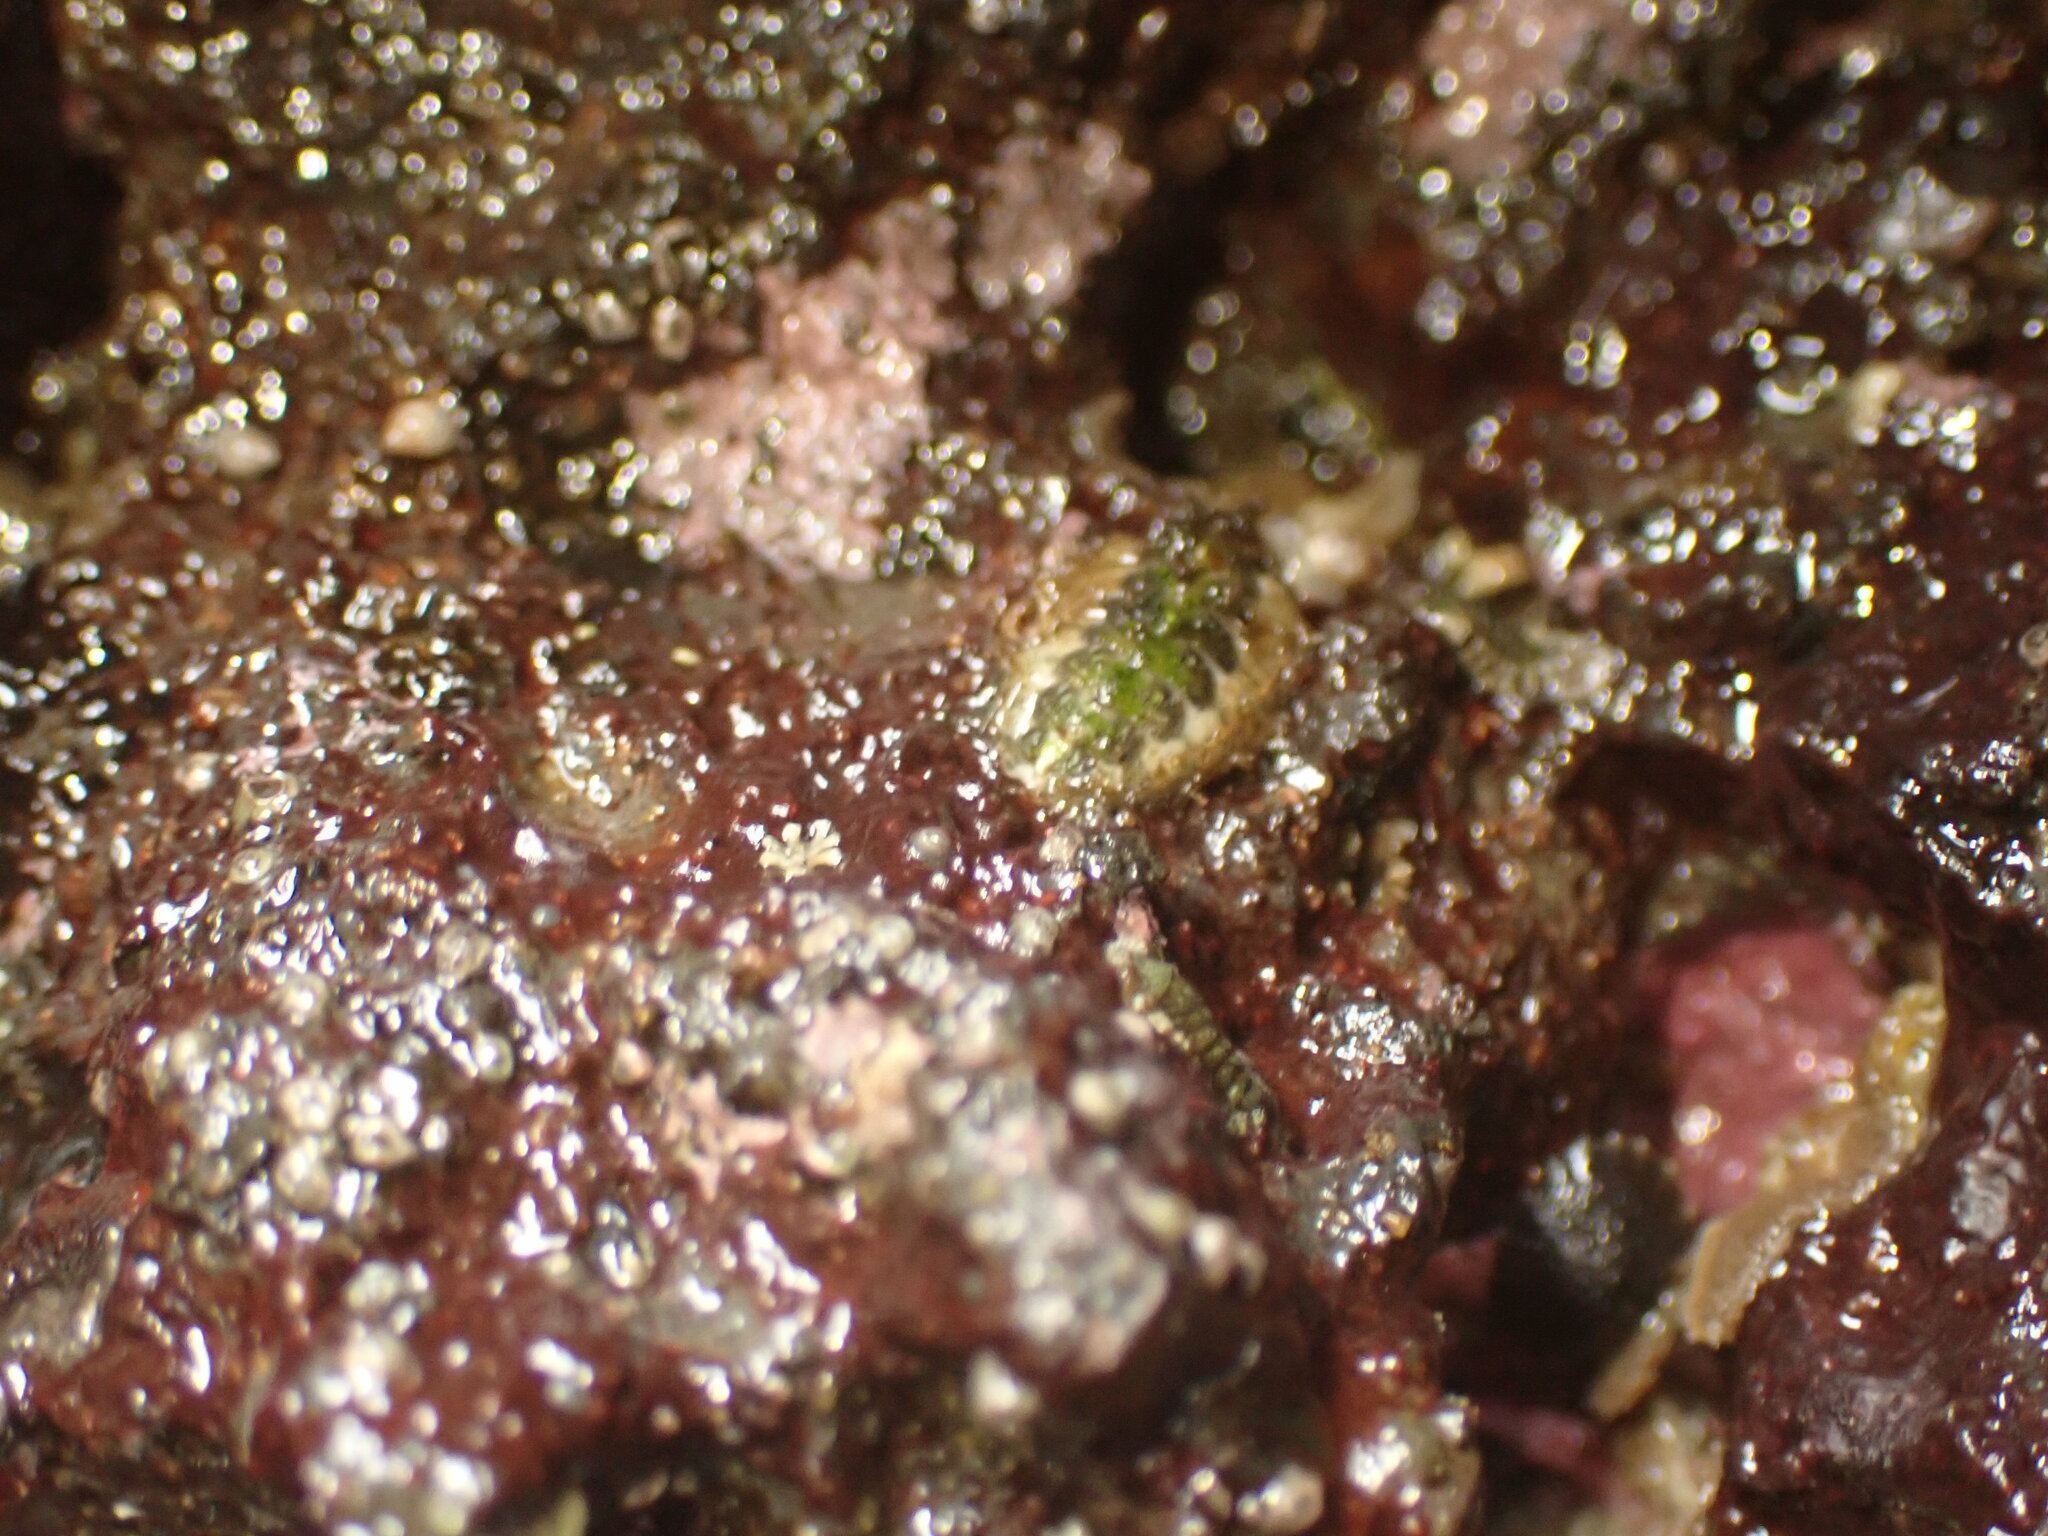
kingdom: Animalia
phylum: Mollusca
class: Polyplacophora
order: Chitonida
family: Mopaliidae
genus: Plaxiphora
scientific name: Plaxiphora caelata
